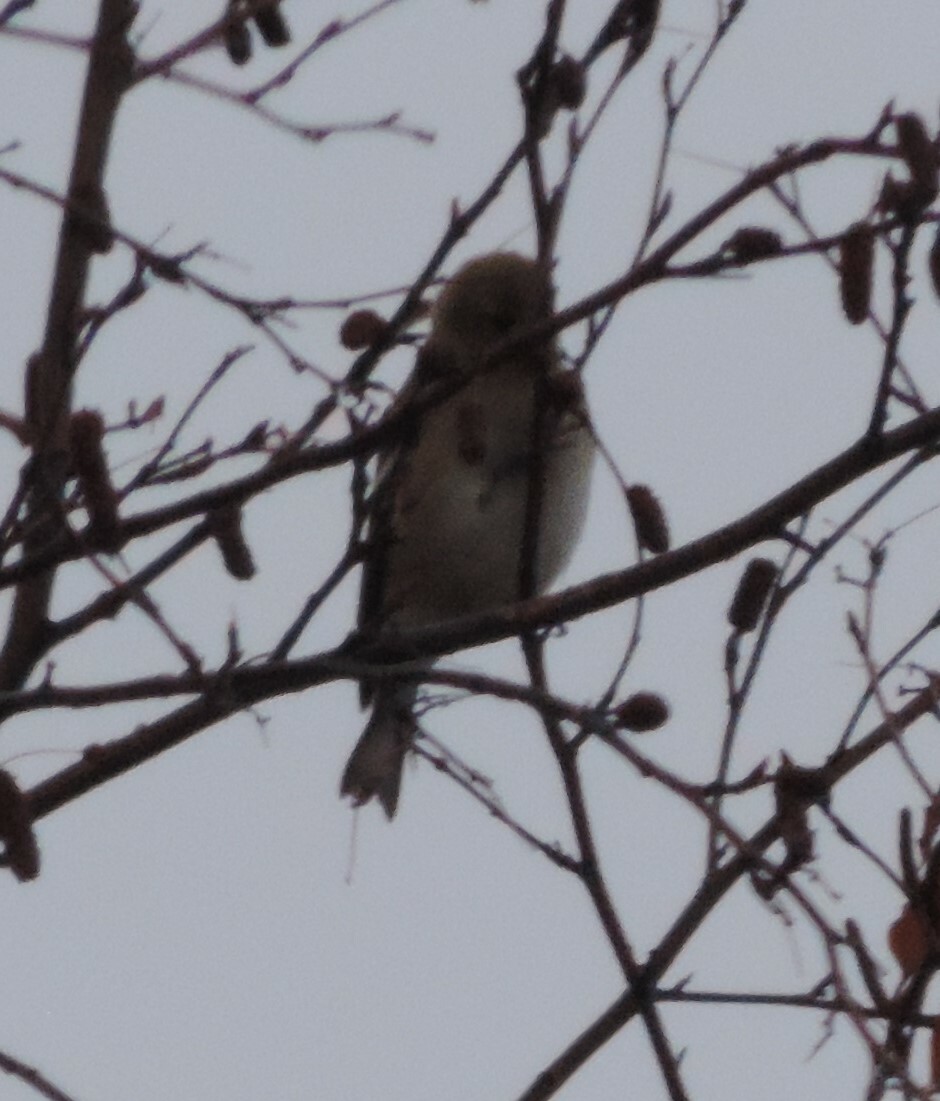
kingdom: Animalia
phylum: Chordata
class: Aves
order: Passeriformes
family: Fringillidae
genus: Spinus
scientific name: Spinus tristis
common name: American goldfinch
